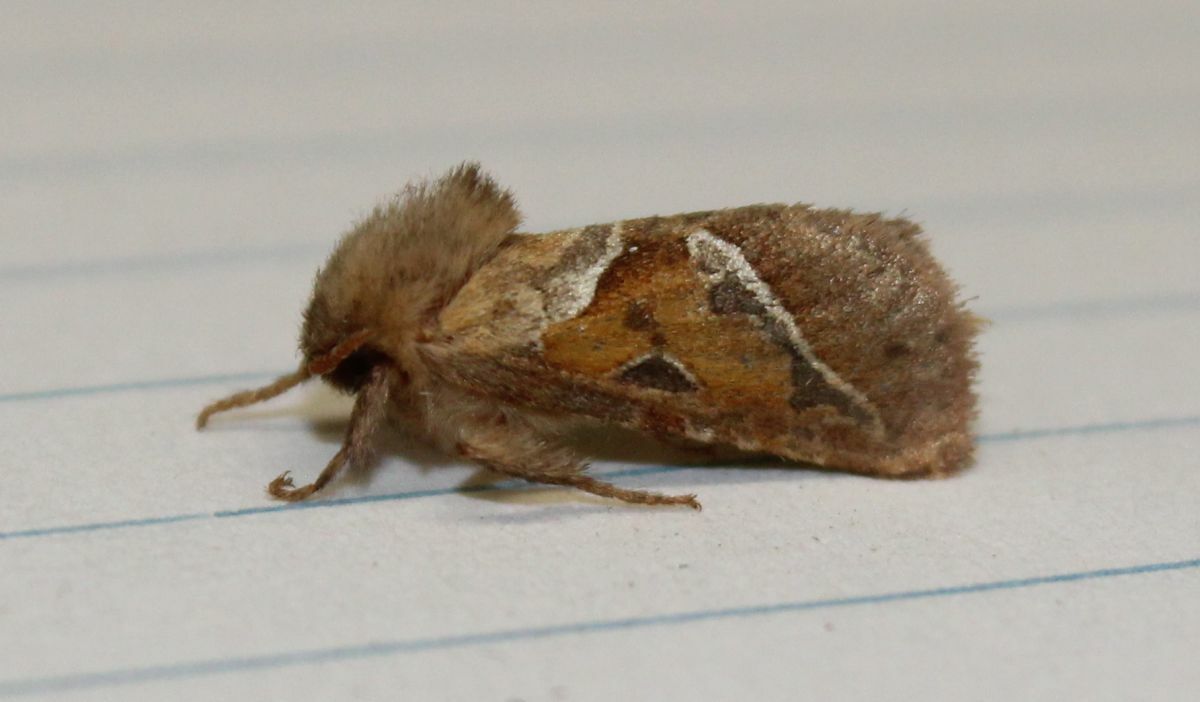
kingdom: Animalia
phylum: Arthropoda
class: Insecta
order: Lepidoptera
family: Hepialidae
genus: Triodia
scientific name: Triodia sylvina
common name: Orange swift
